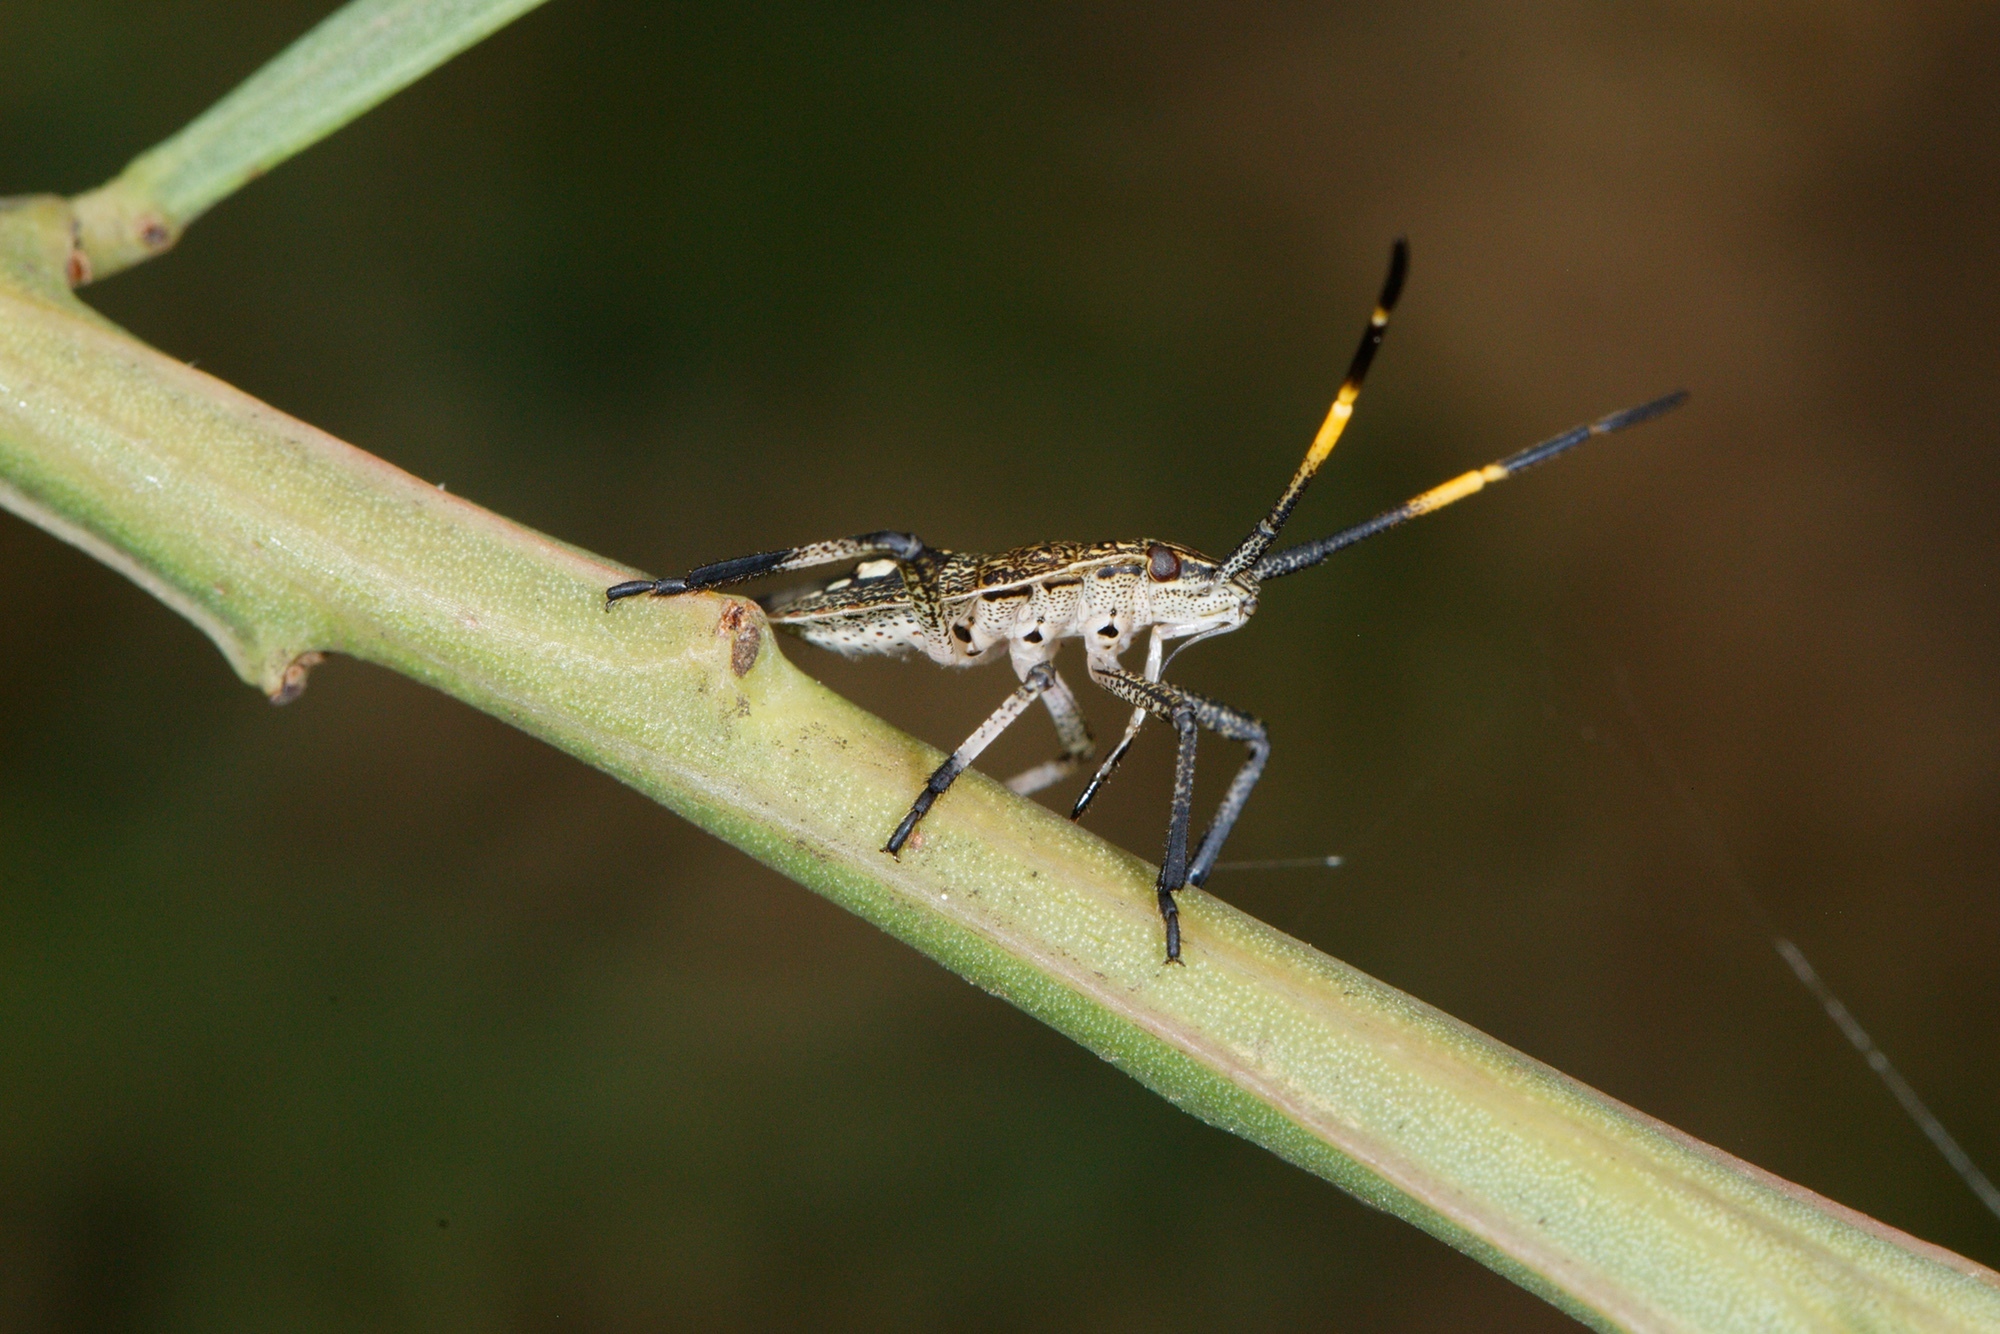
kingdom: Animalia
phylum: Arthropoda
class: Insecta
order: Hemiptera
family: Pentatomidae
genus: Poecilometis
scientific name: Poecilometis
